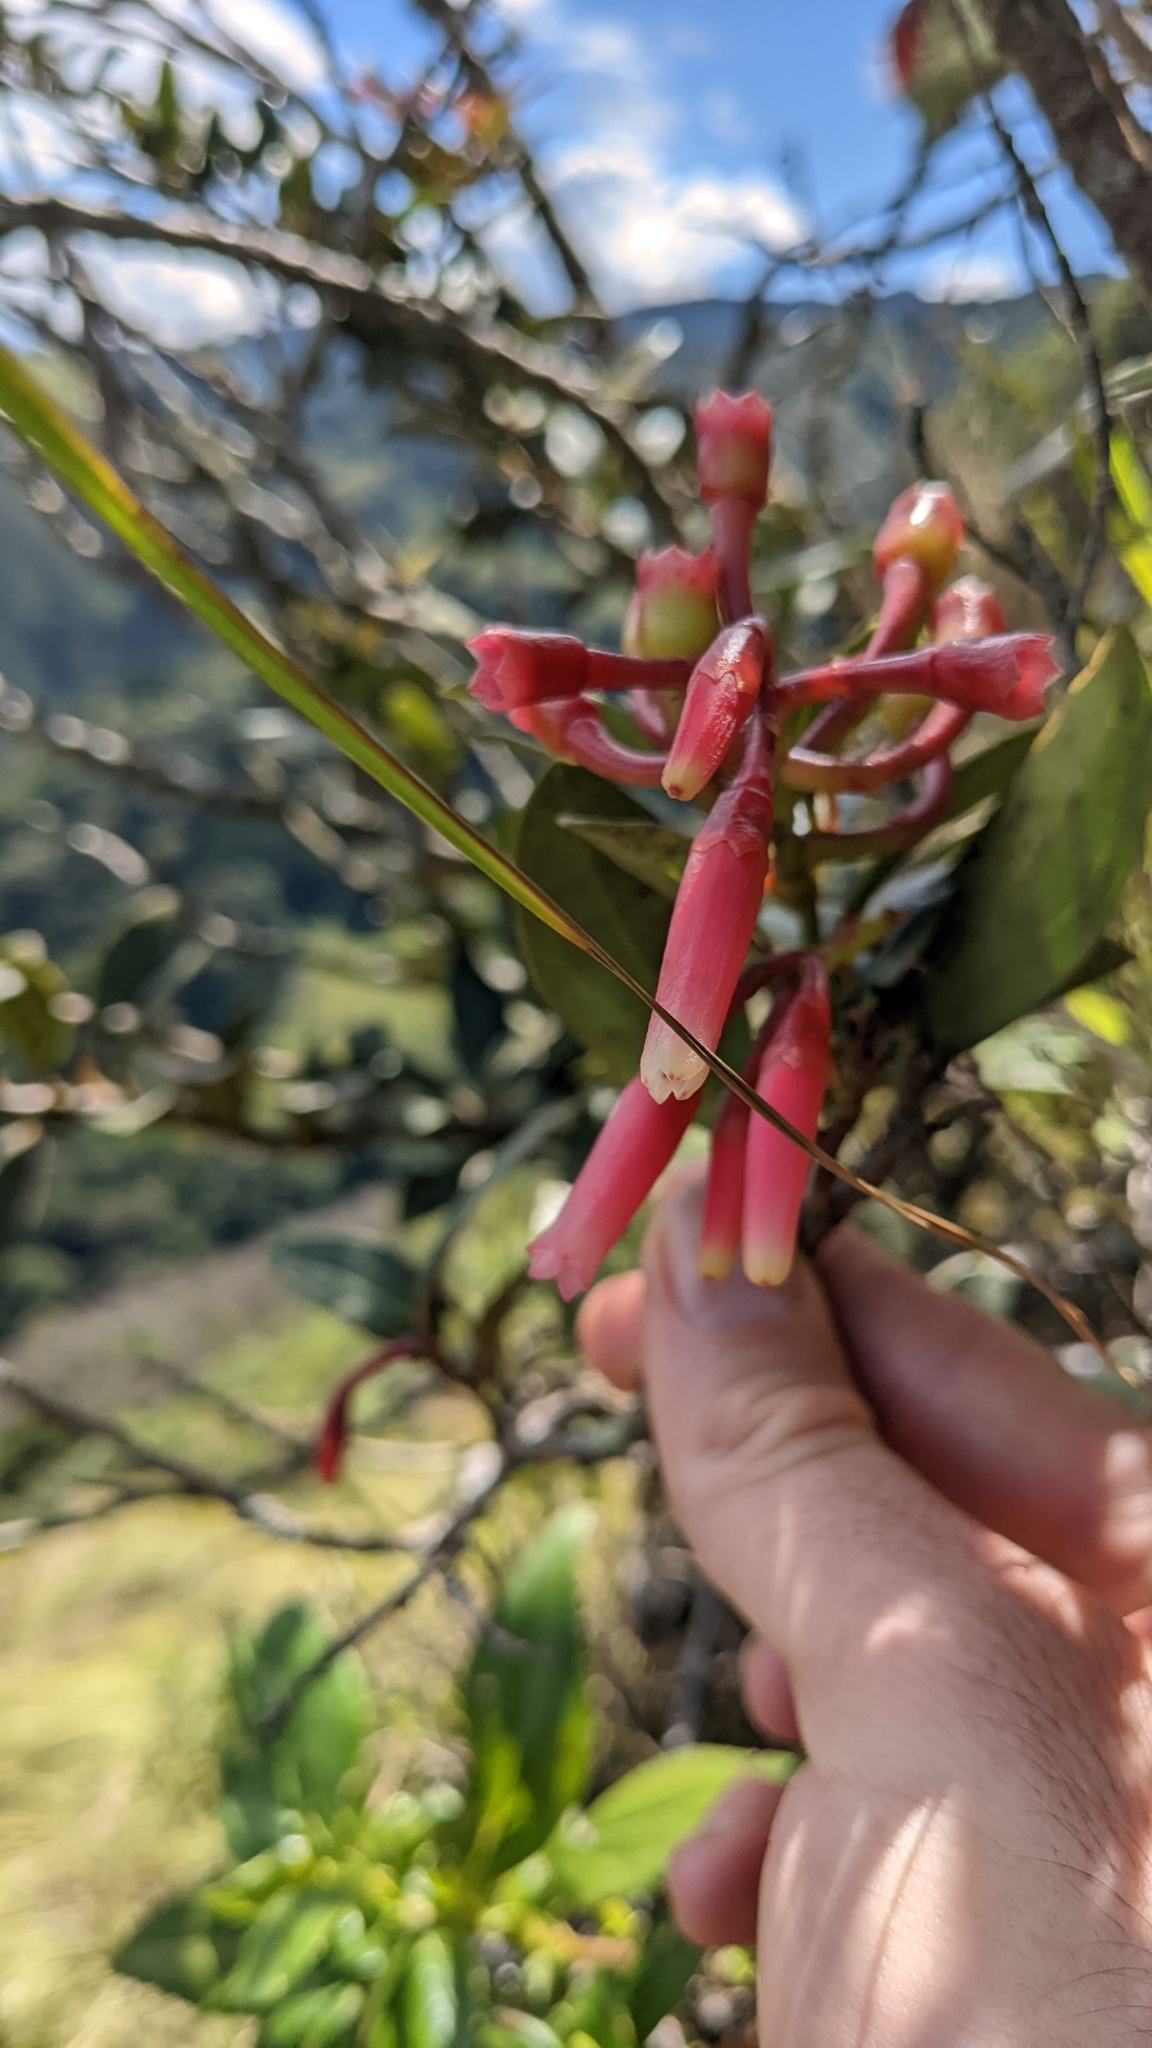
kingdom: Plantae
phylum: Tracheophyta
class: Magnoliopsida
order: Ericales
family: Ericaceae
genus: Macleania
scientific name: Macleania rupestris
